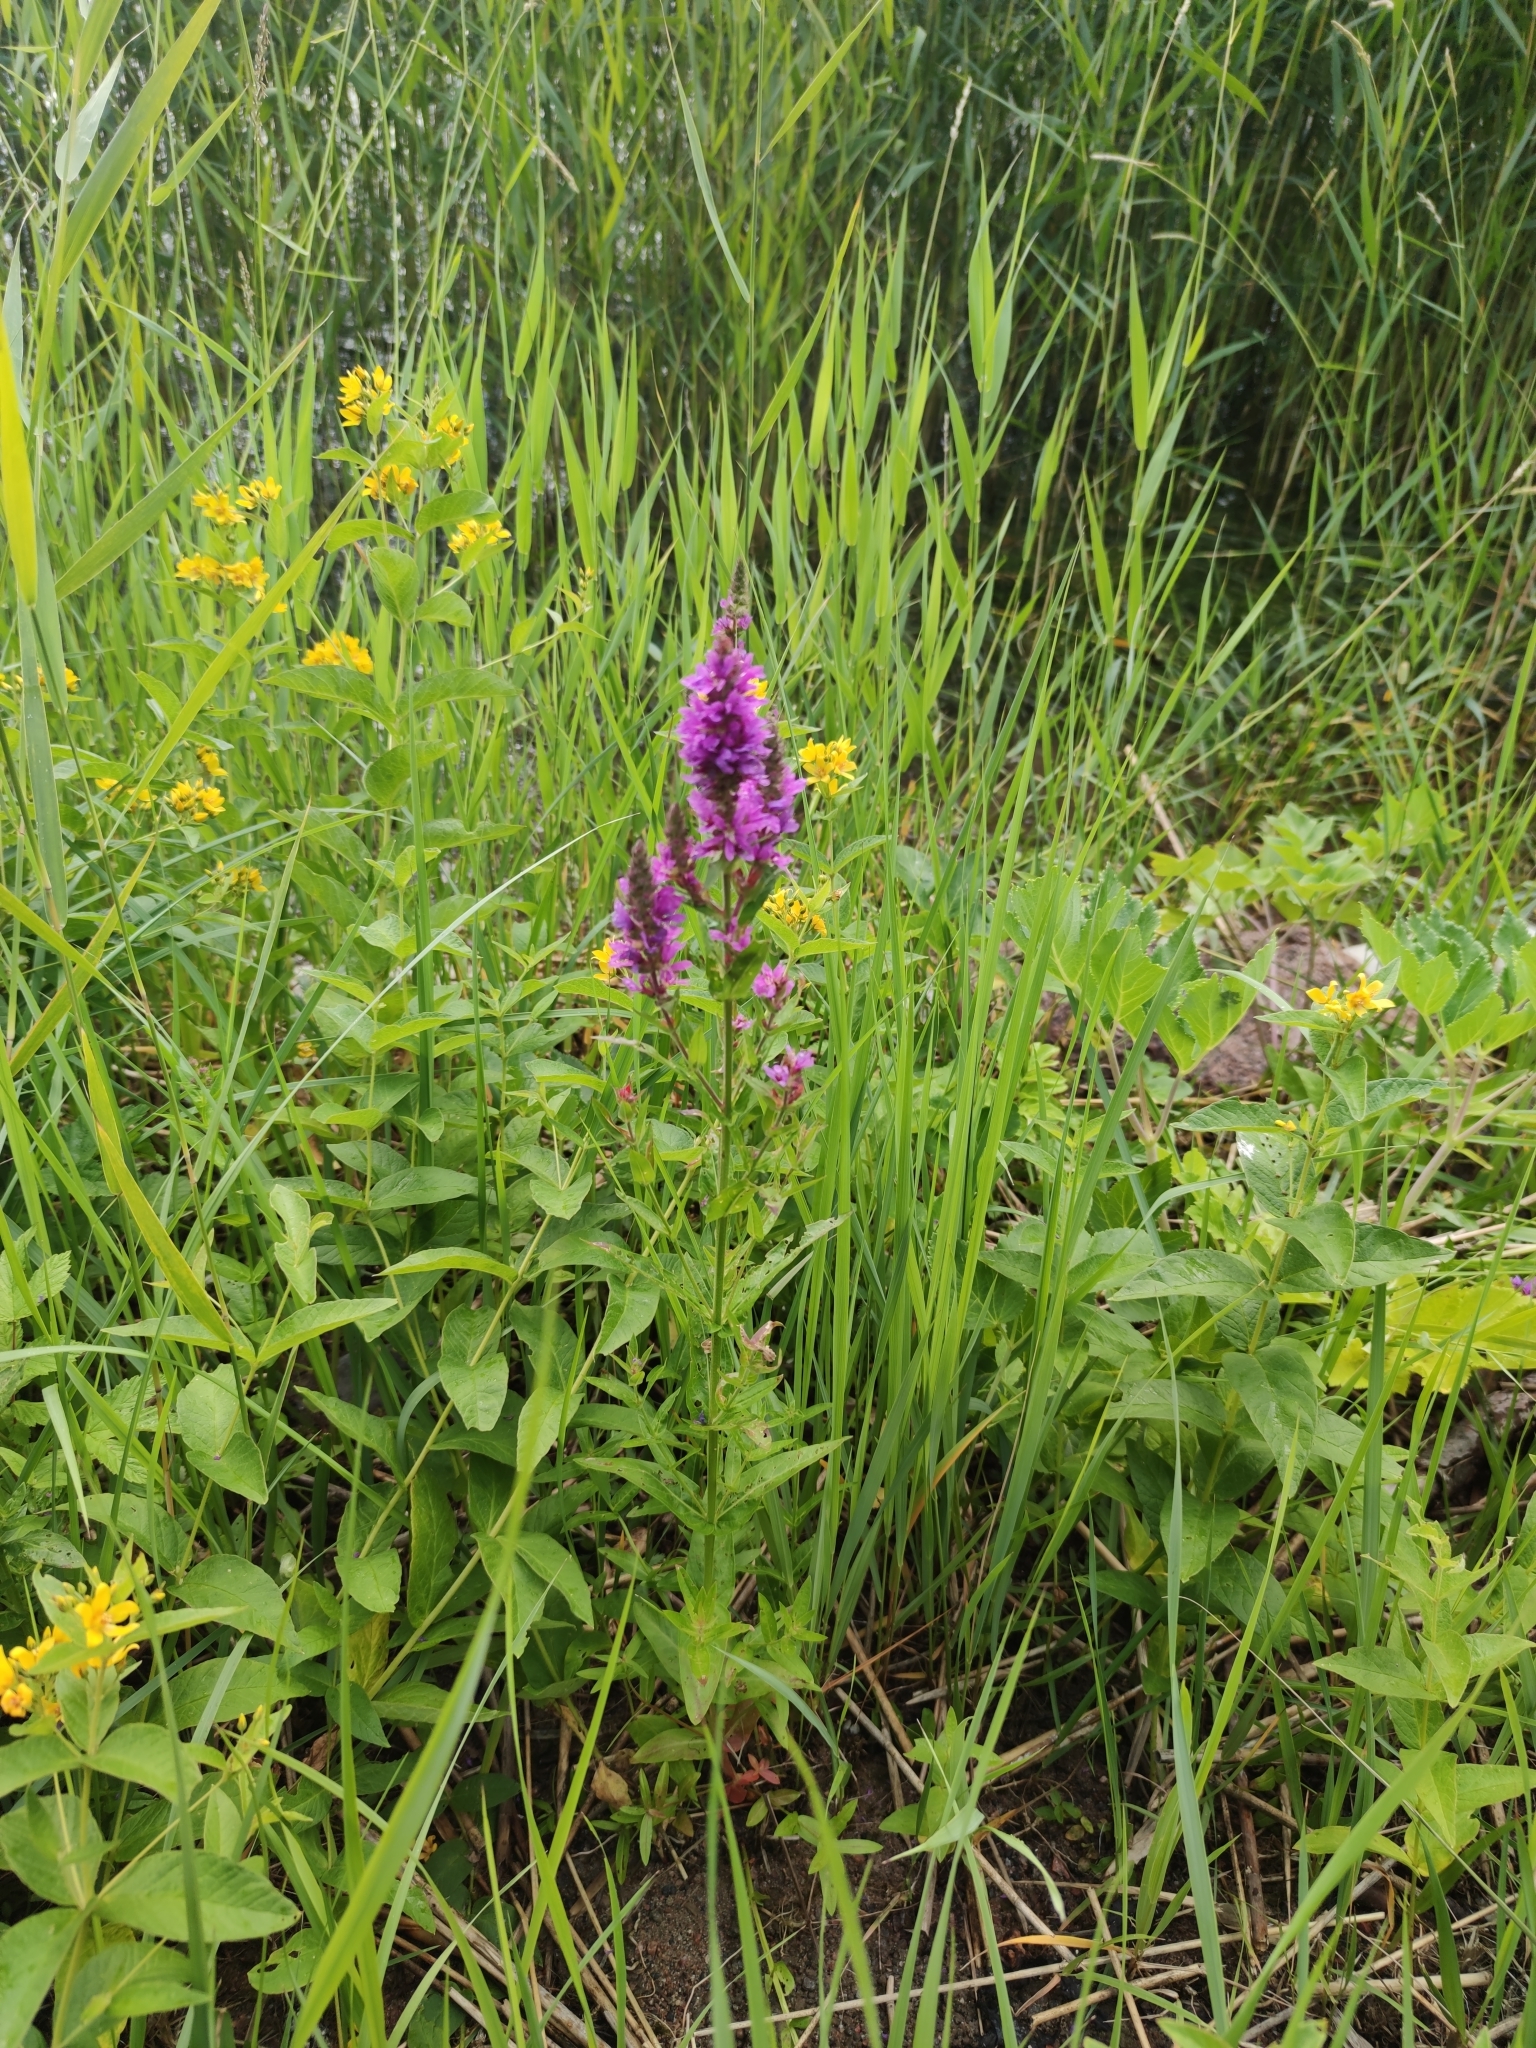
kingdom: Plantae
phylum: Tracheophyta
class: Magnoliopsida
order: Myrtales
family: Lythraceae
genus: Lythrum
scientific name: Lythrum salicaria
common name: Purple loosestrife
